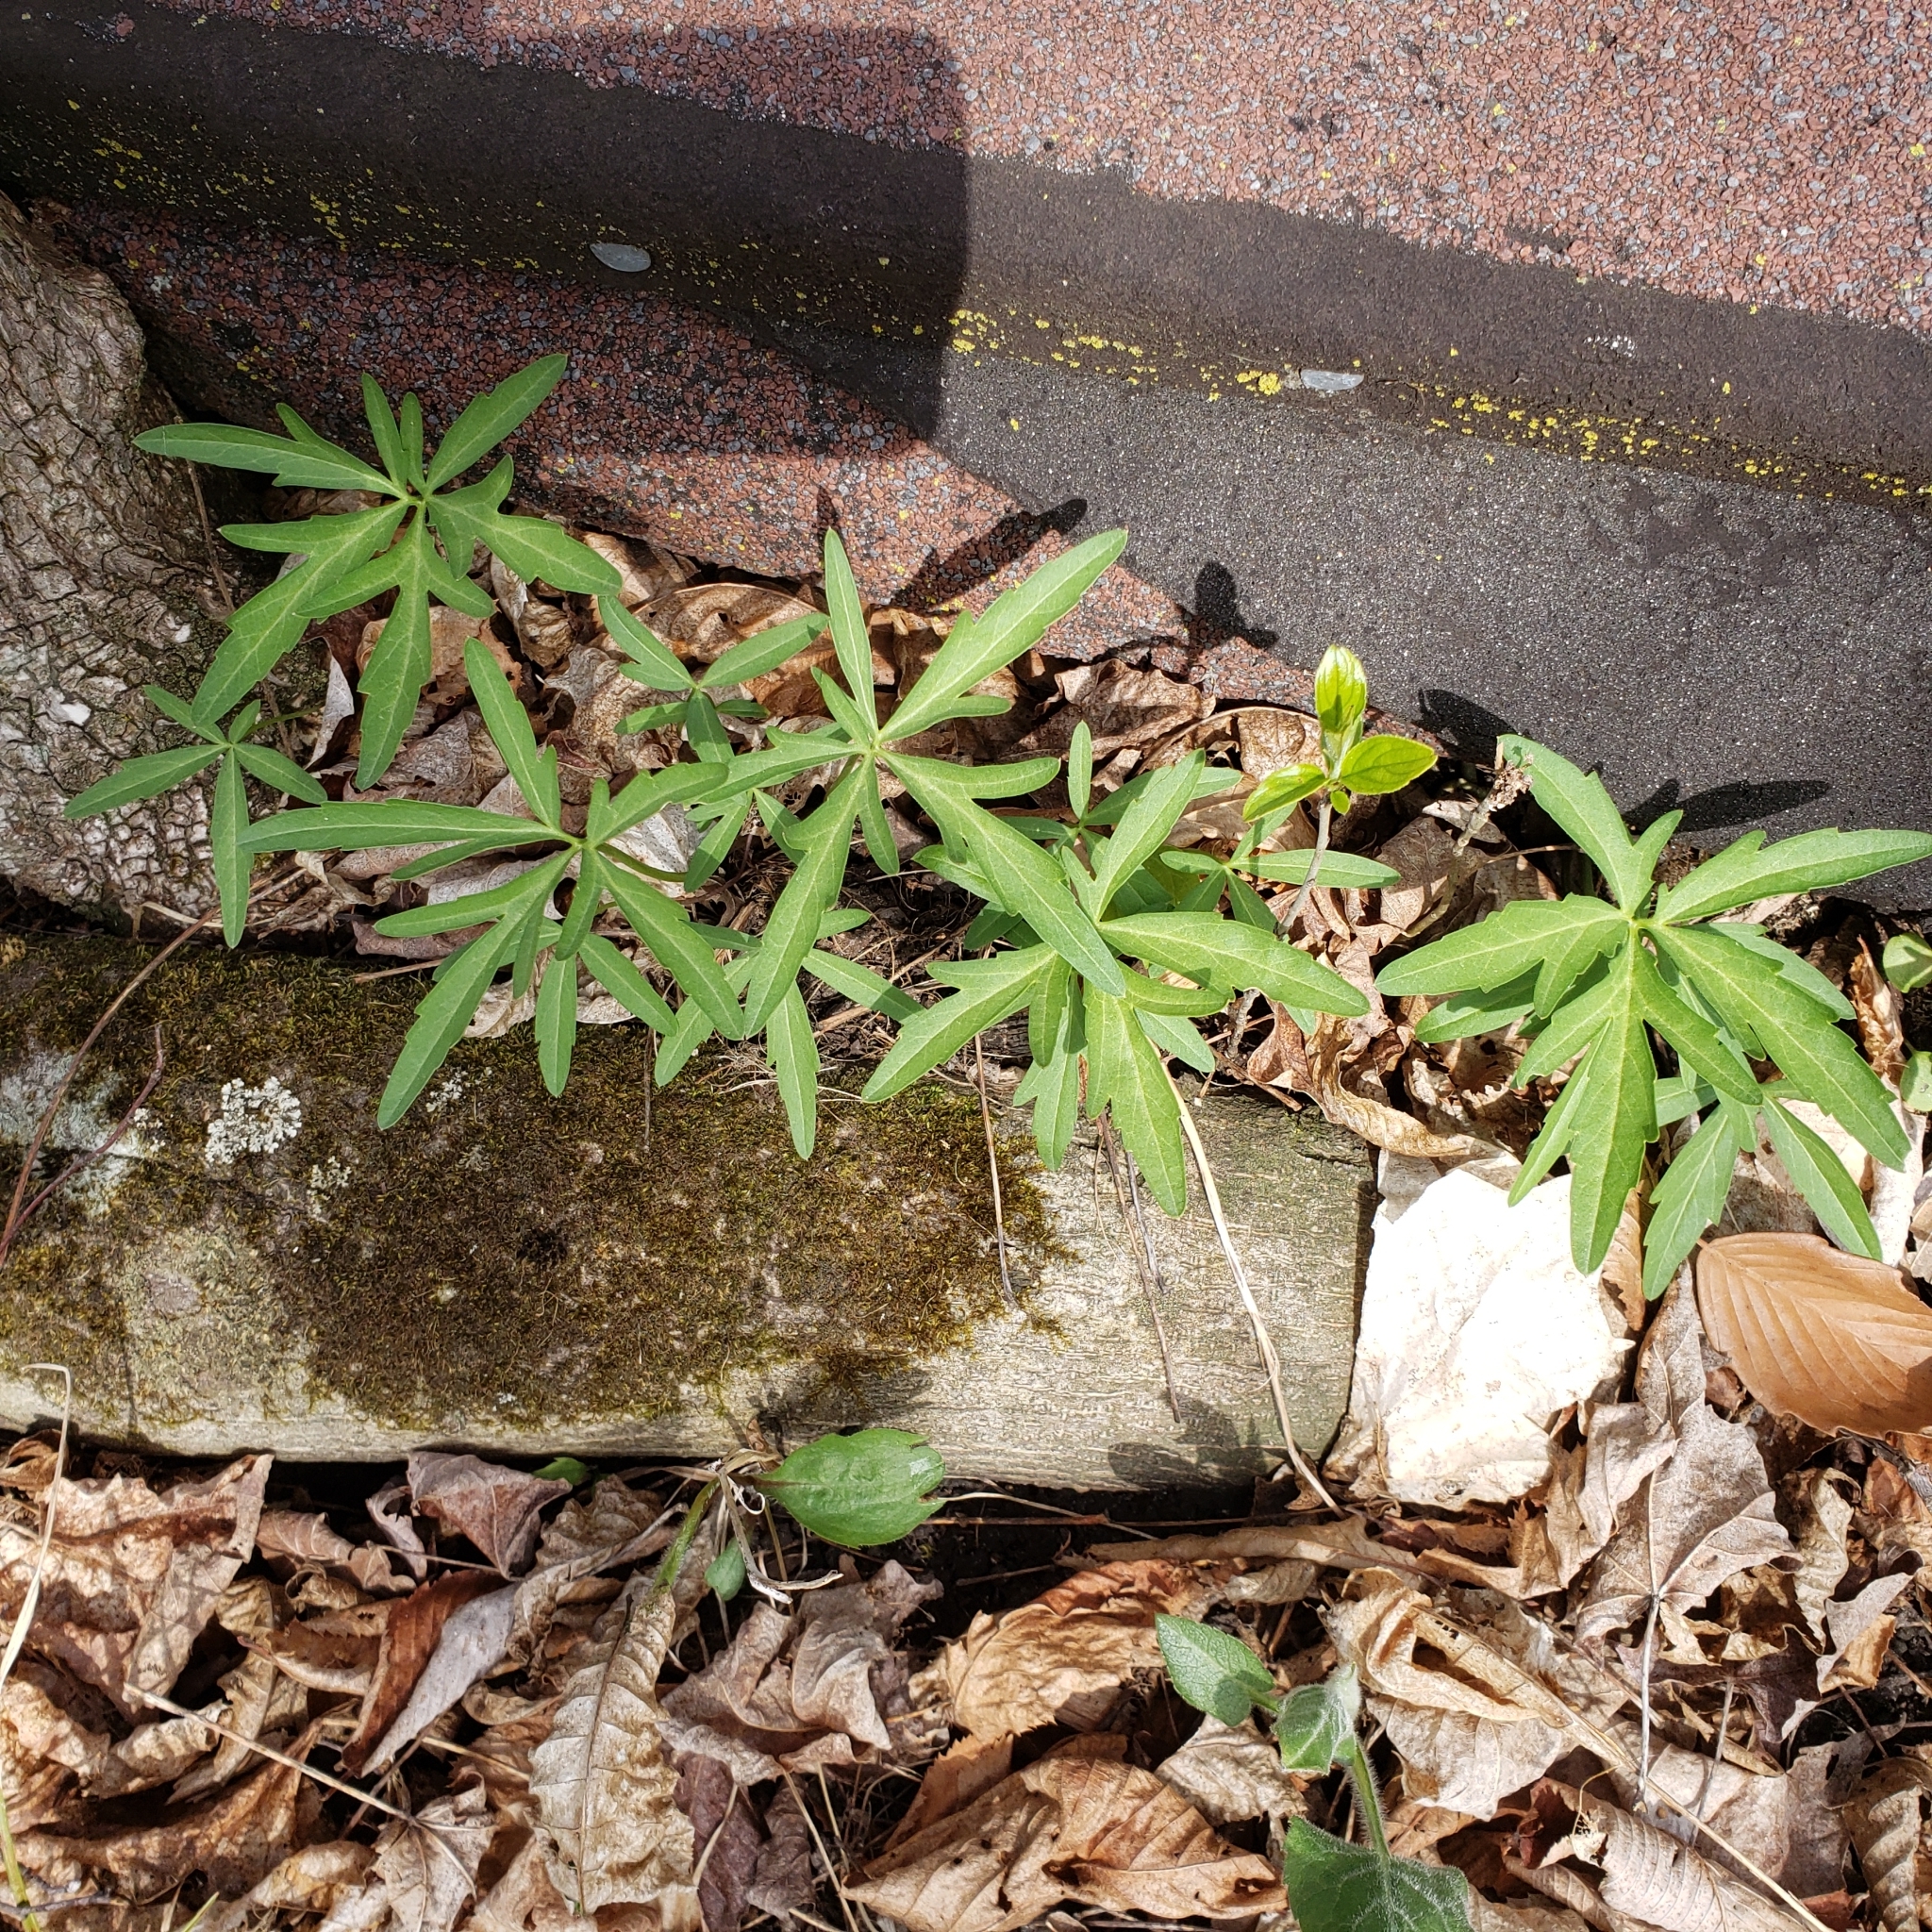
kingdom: Plantae
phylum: Tracheophyta
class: Magnoliopsida
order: Brassicales
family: Brassicaceae
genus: Cardamine
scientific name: Cardamine concatenata
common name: Cut-leaf toothcup
